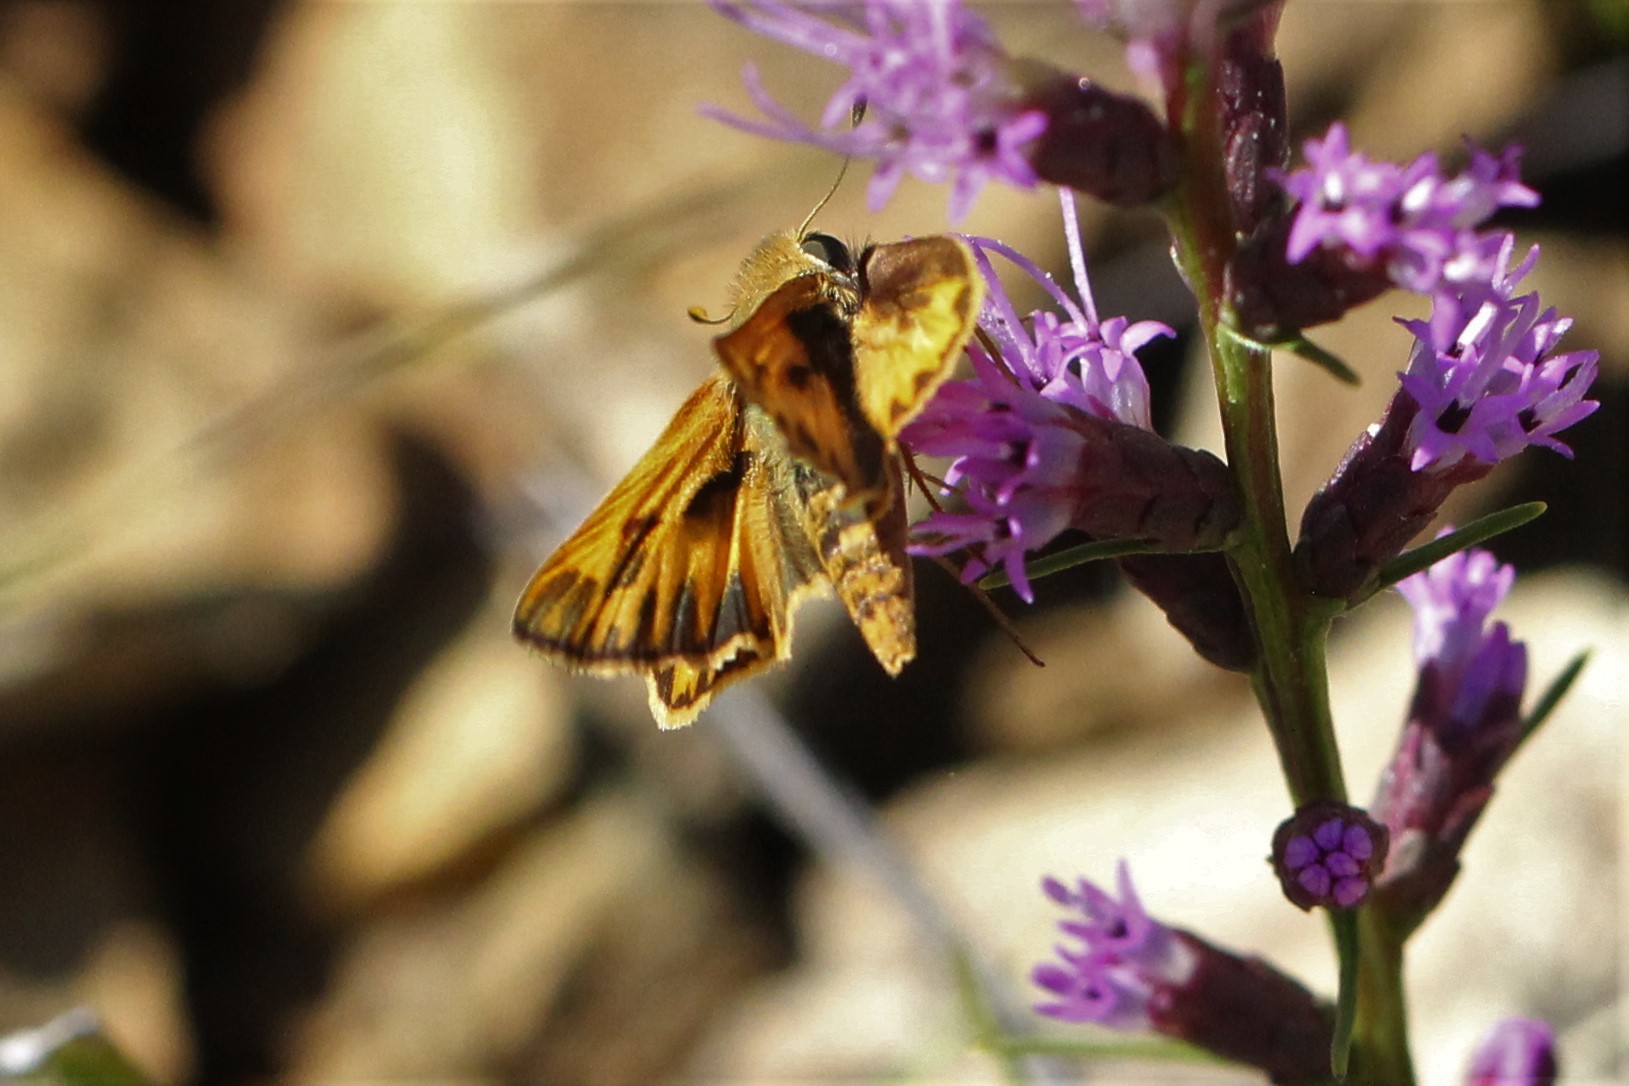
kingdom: Animalia
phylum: Arthropoda
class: Insecta
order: Lepidoptera
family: Hesperiidae
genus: Hylephila
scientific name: Hylephila phyleus
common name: Fiery skipper
